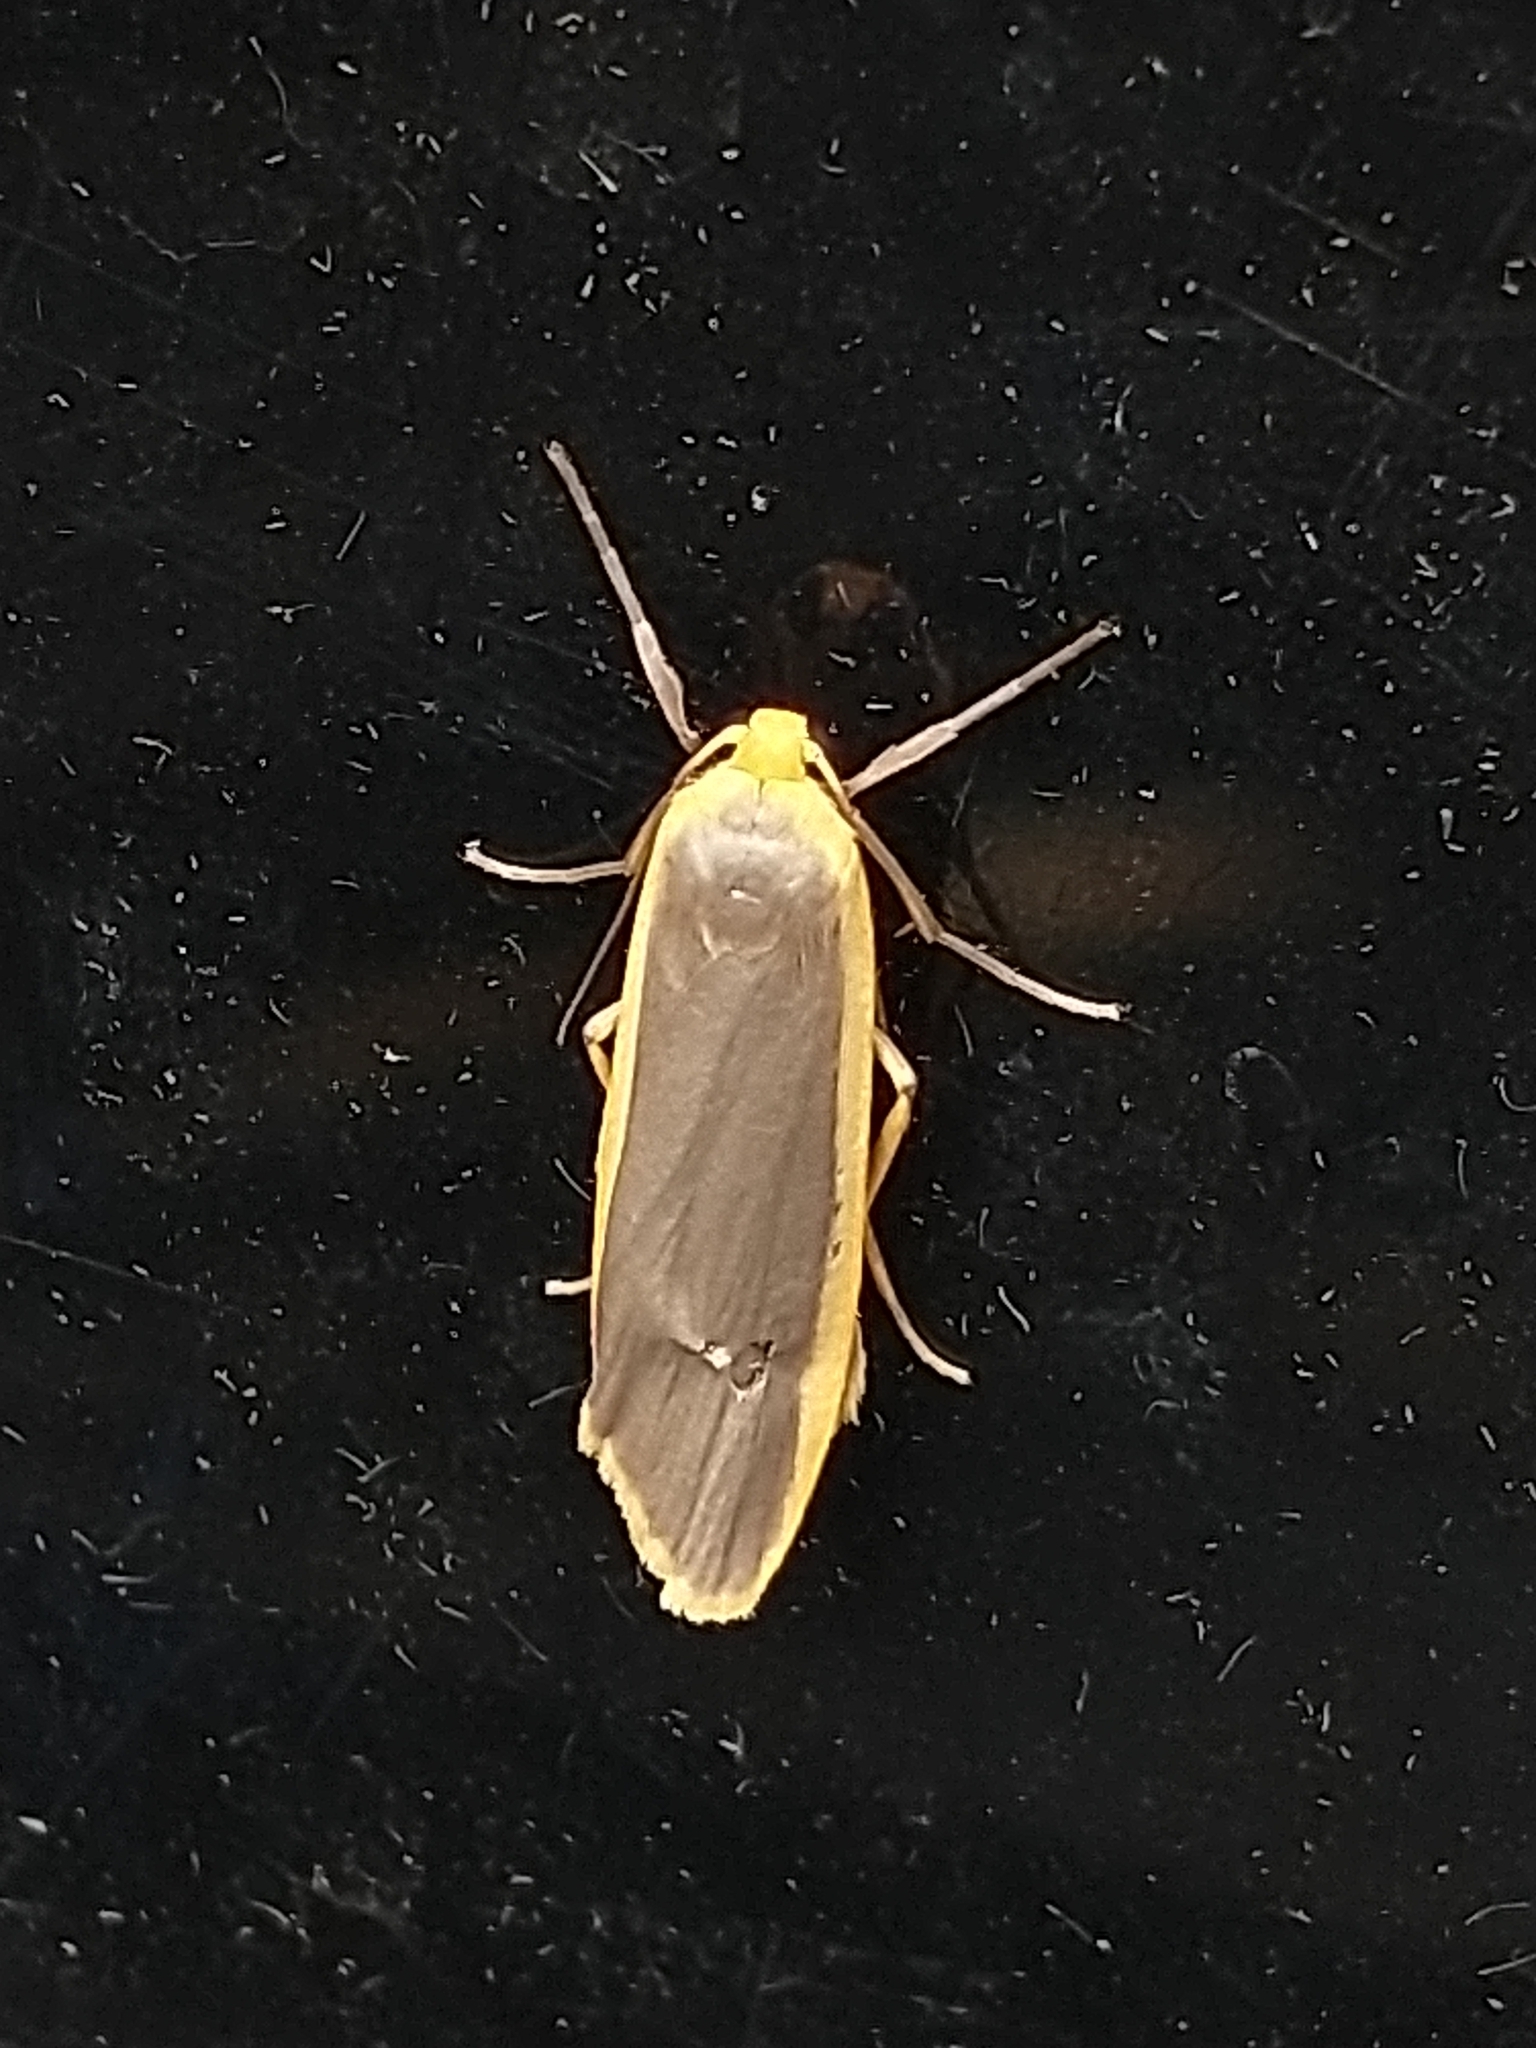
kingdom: Animalia
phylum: Arthropoda
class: Insecta
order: Lepidoptera
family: Erebidae
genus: Nyea
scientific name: Nyea lurideola
